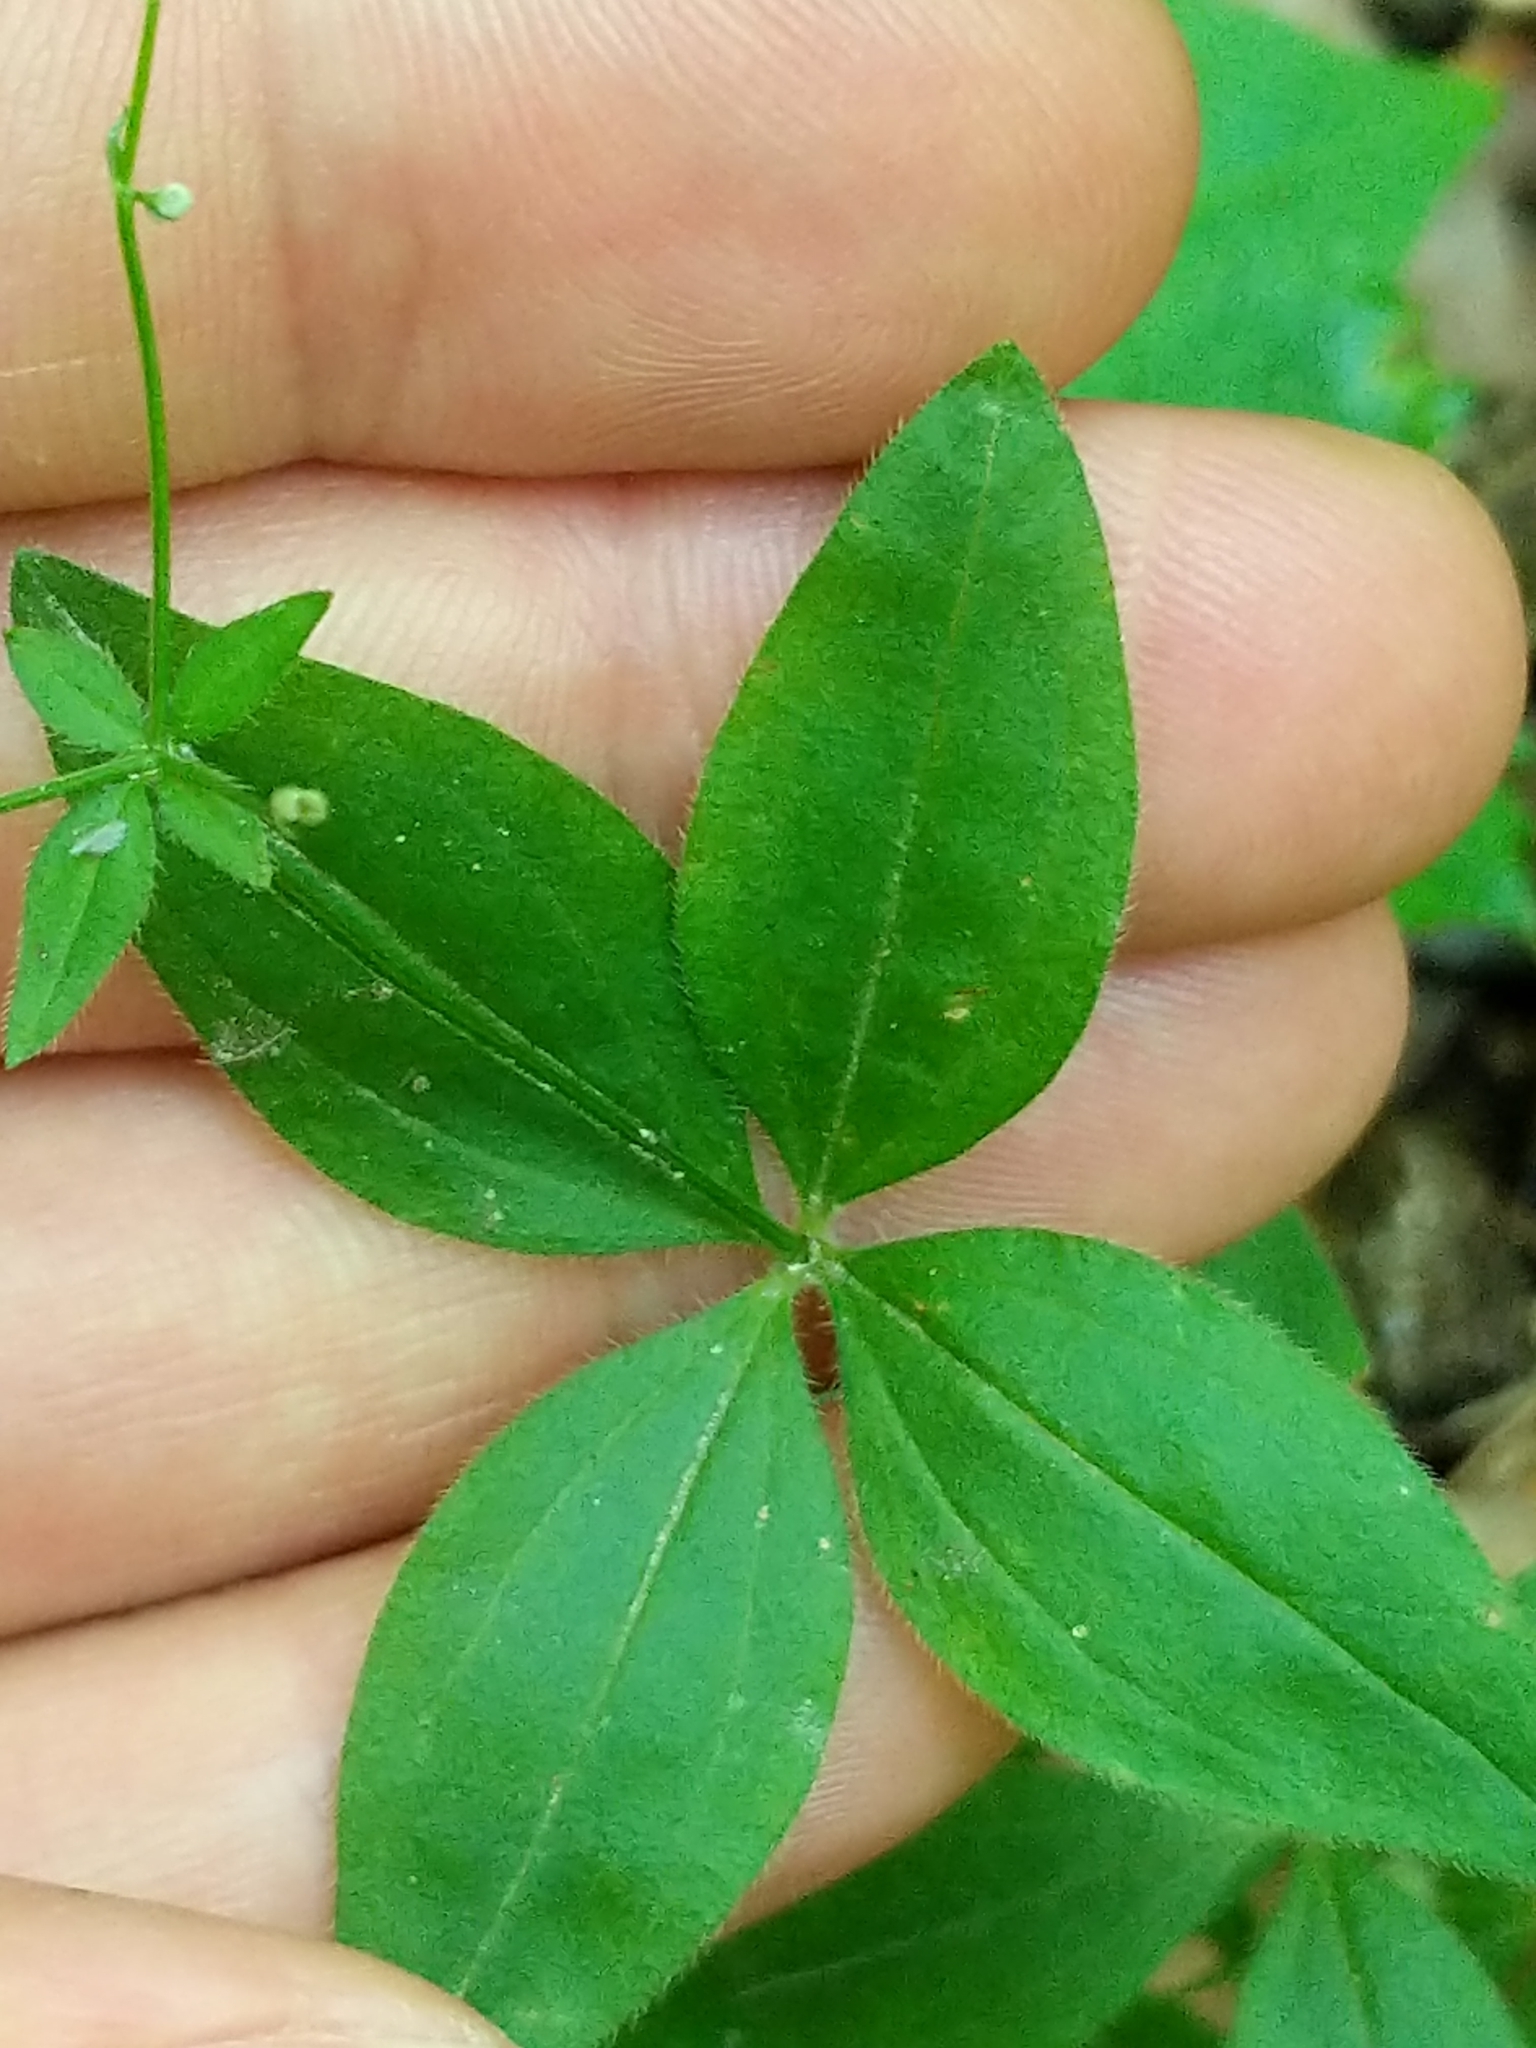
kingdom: Plantae
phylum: Tracheophyta
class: Magnoliopsida
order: Gentianales
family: Rubiaceae
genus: Galium
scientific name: Galium circaezans
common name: Forest bedstraw
